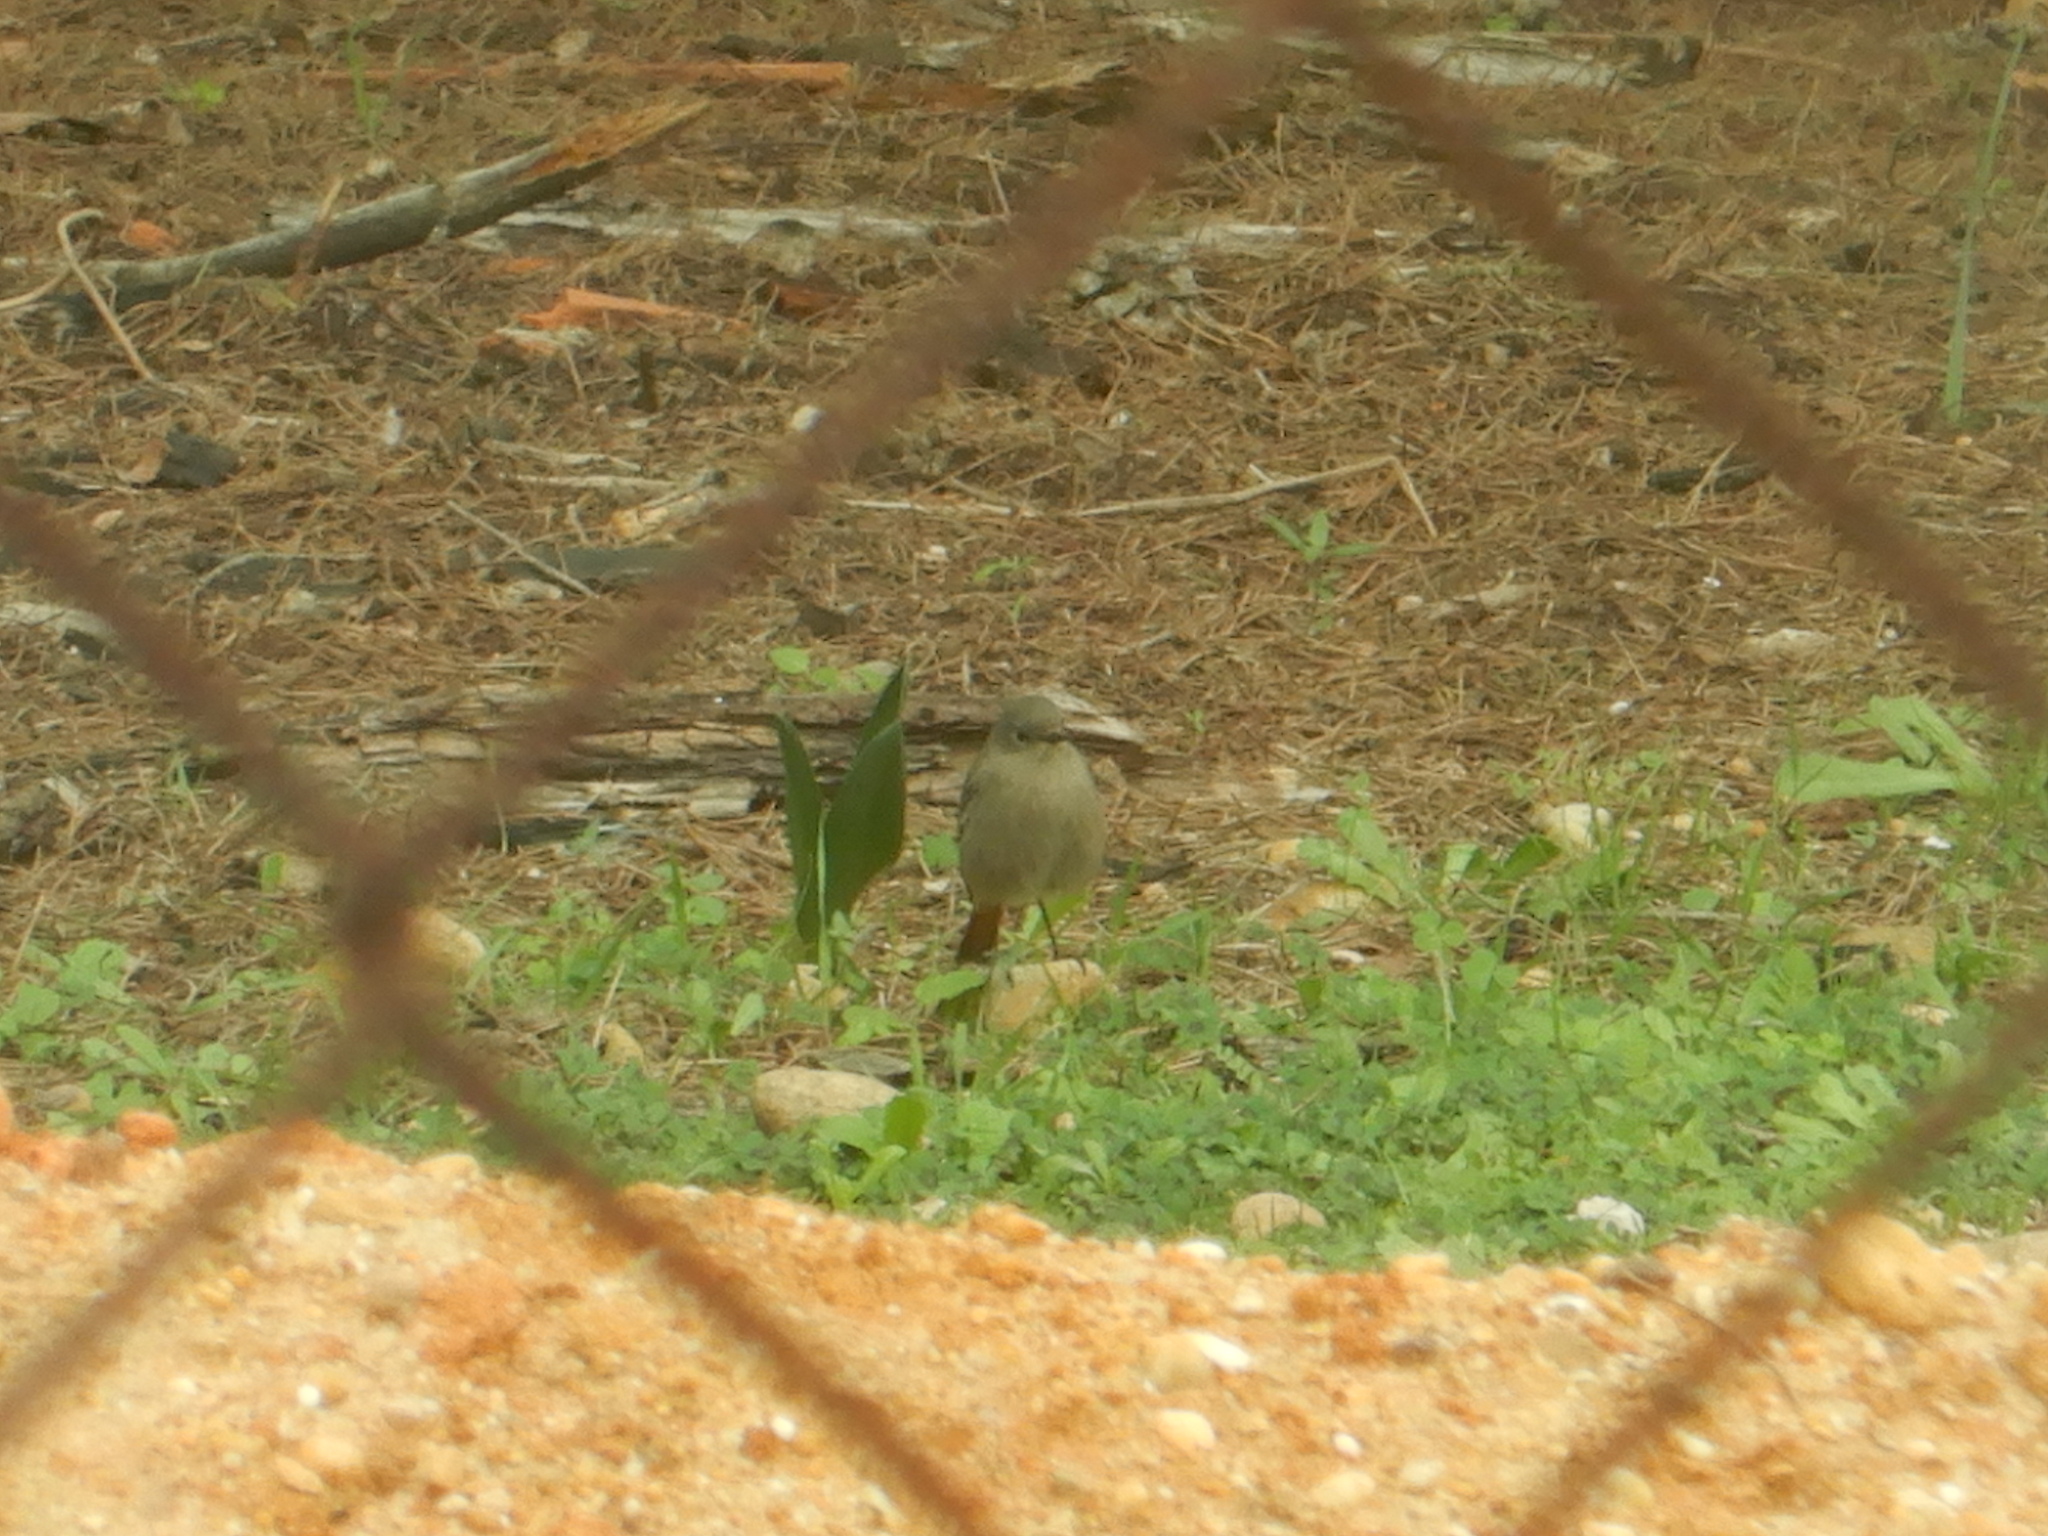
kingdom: Animalia
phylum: Chordata
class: Aves
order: Passeriformes
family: Muscicapidae
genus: Phoenicurus
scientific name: Phoenicurus ochruros
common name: Black redstart
